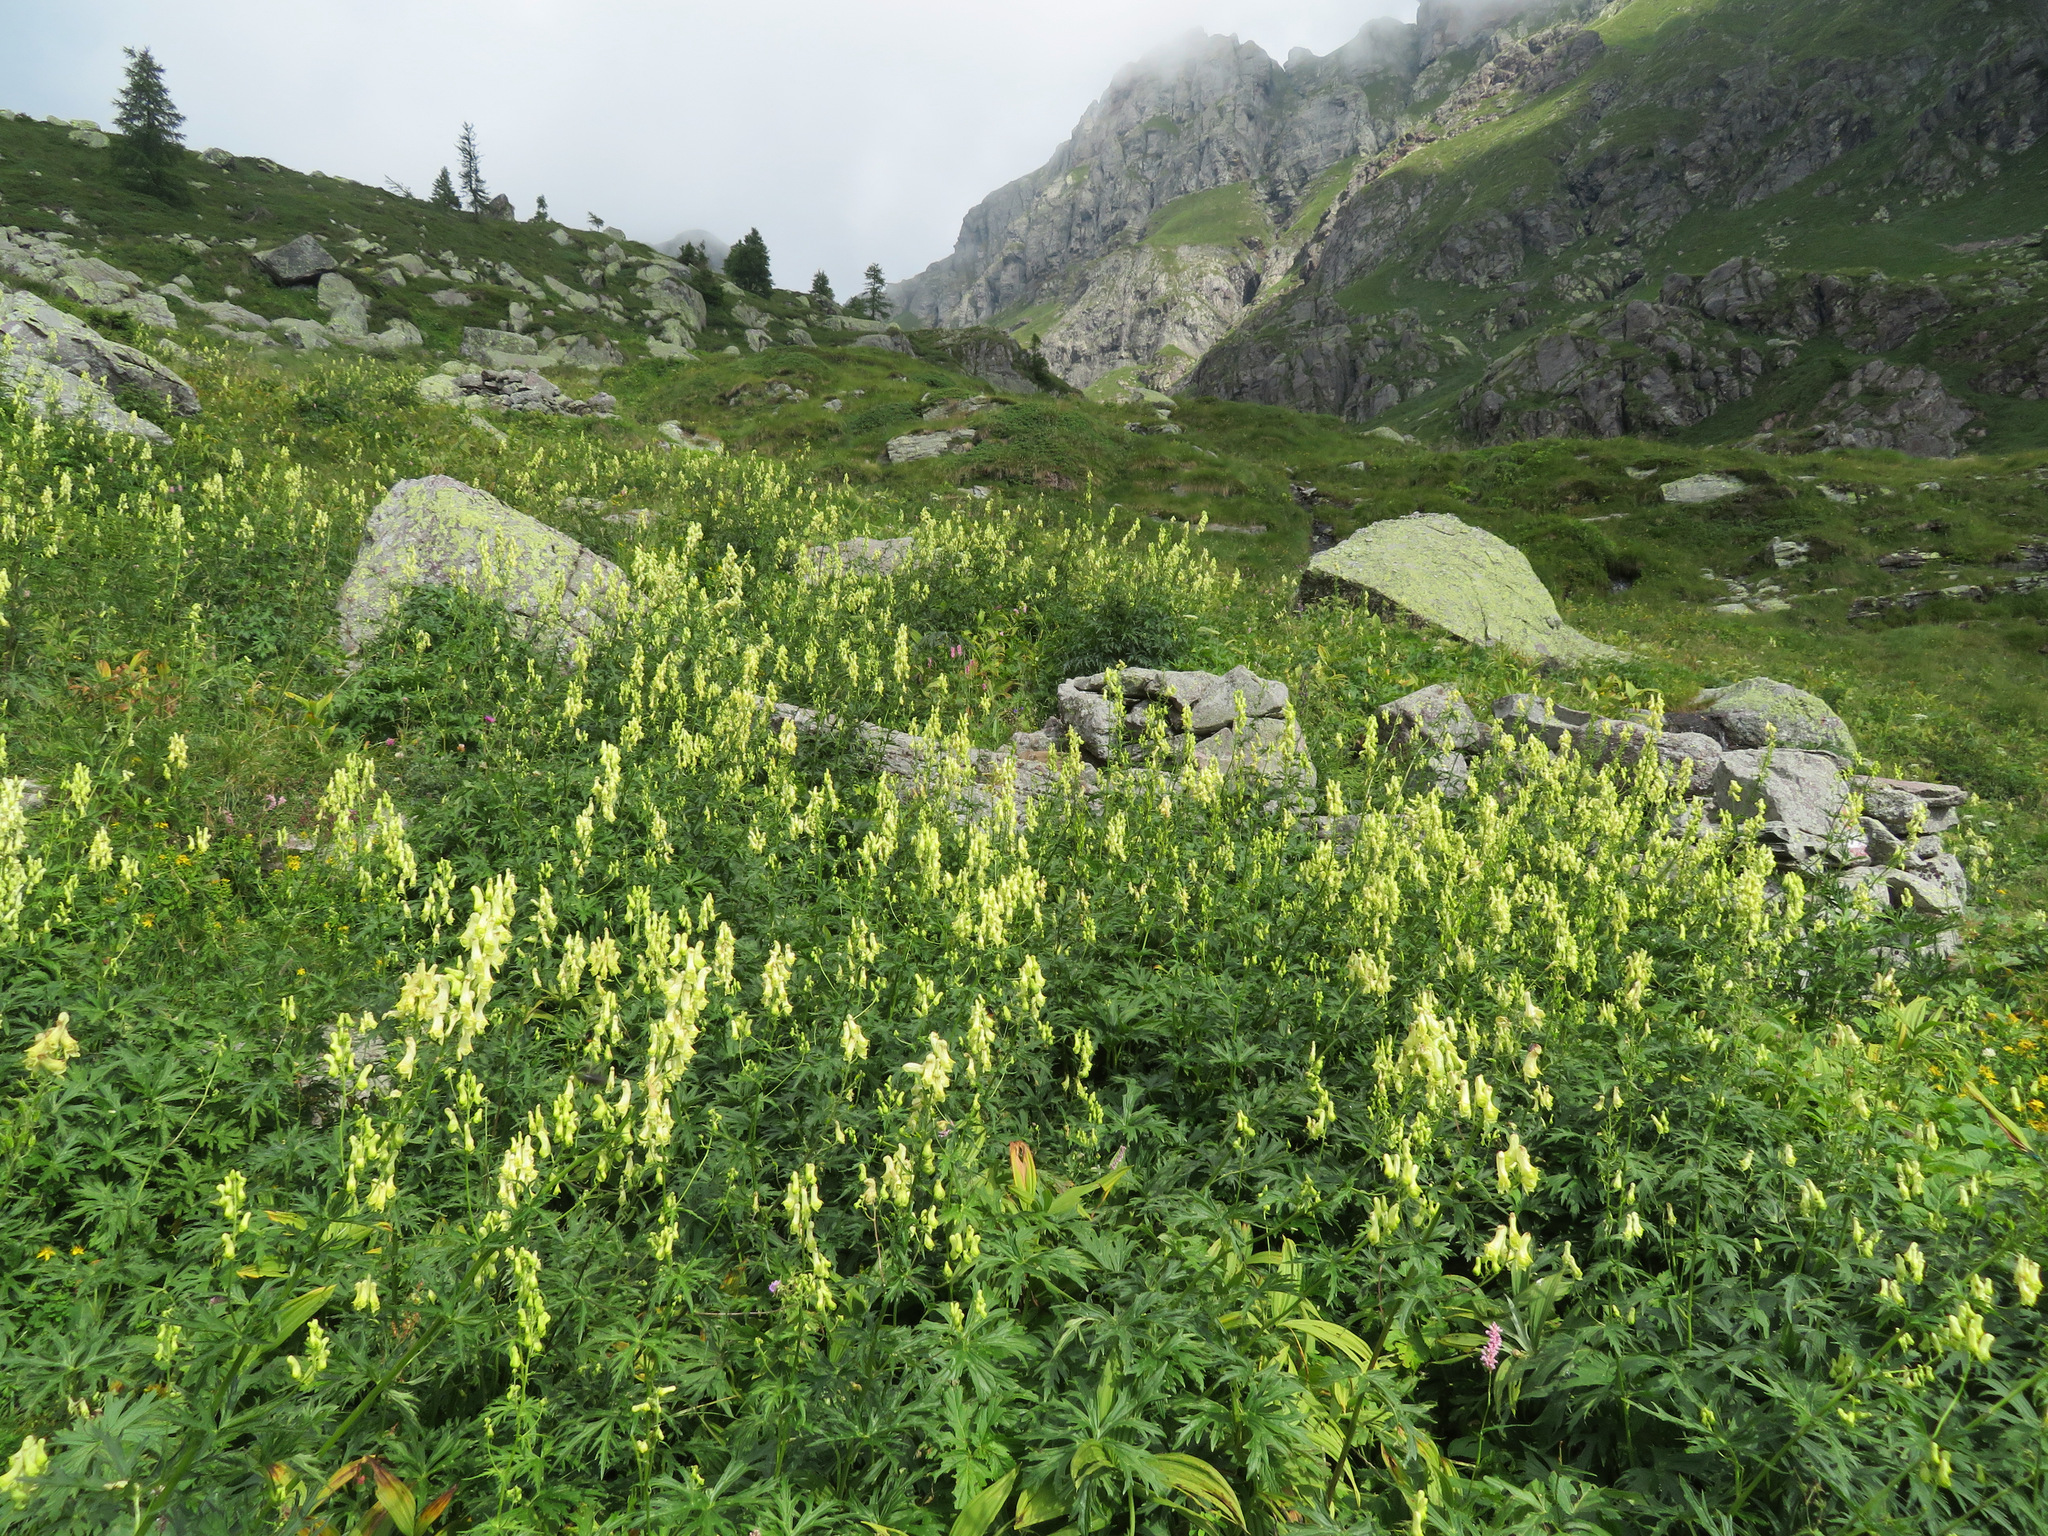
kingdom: Plantae
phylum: Tracheophyta
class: Magnoliopsida
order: Ranunculales
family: Ranunculaceae
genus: Aconitum
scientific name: Aconitum lycoctonum
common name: Wolf's-bane
